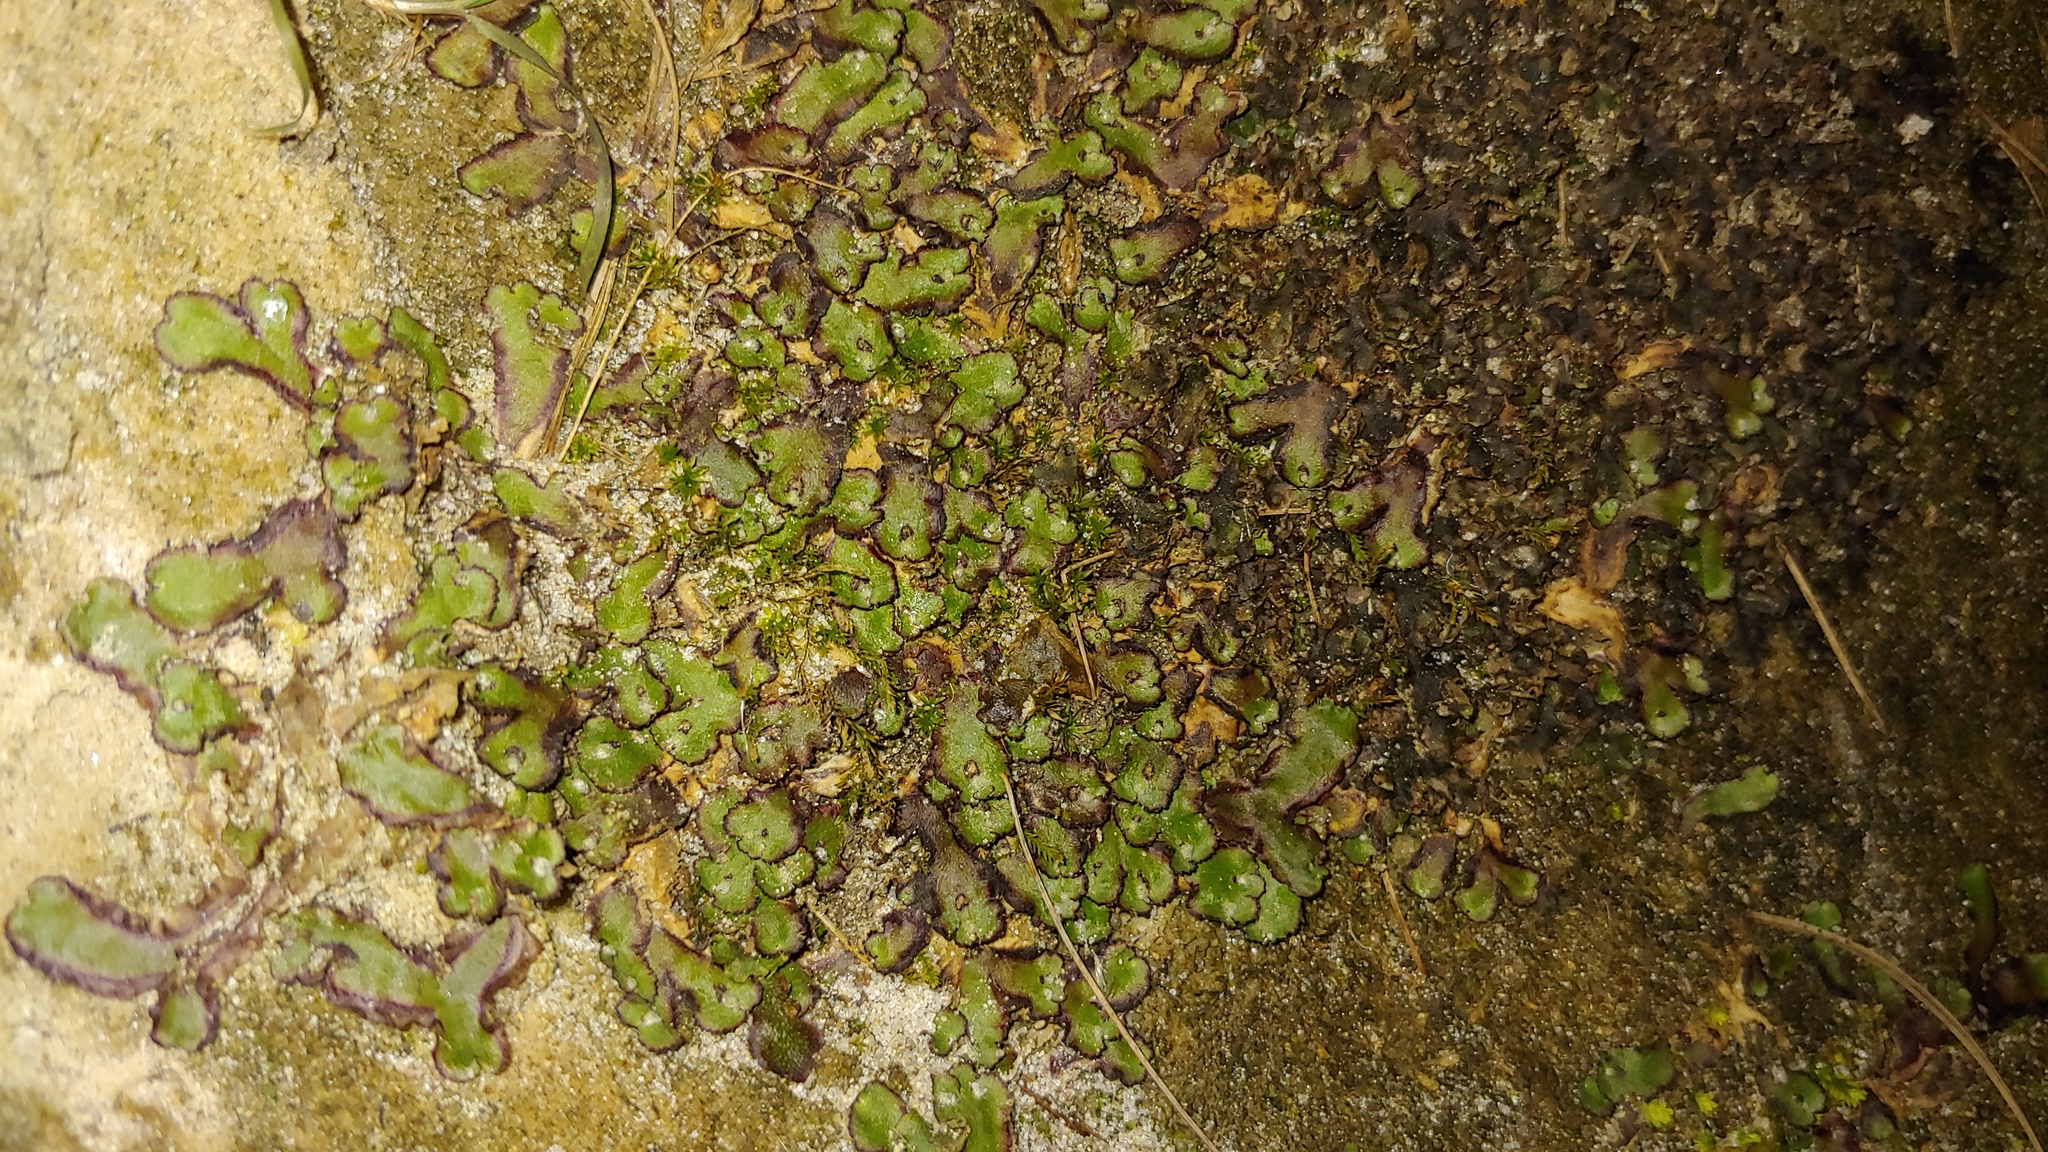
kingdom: Plantae
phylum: Marchantiophyta
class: Marchantiopsida
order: Marchantiales
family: Aytoniaceae
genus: Reboulia
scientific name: Reboulia hemisphaerica
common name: Purple-margined liverwort
